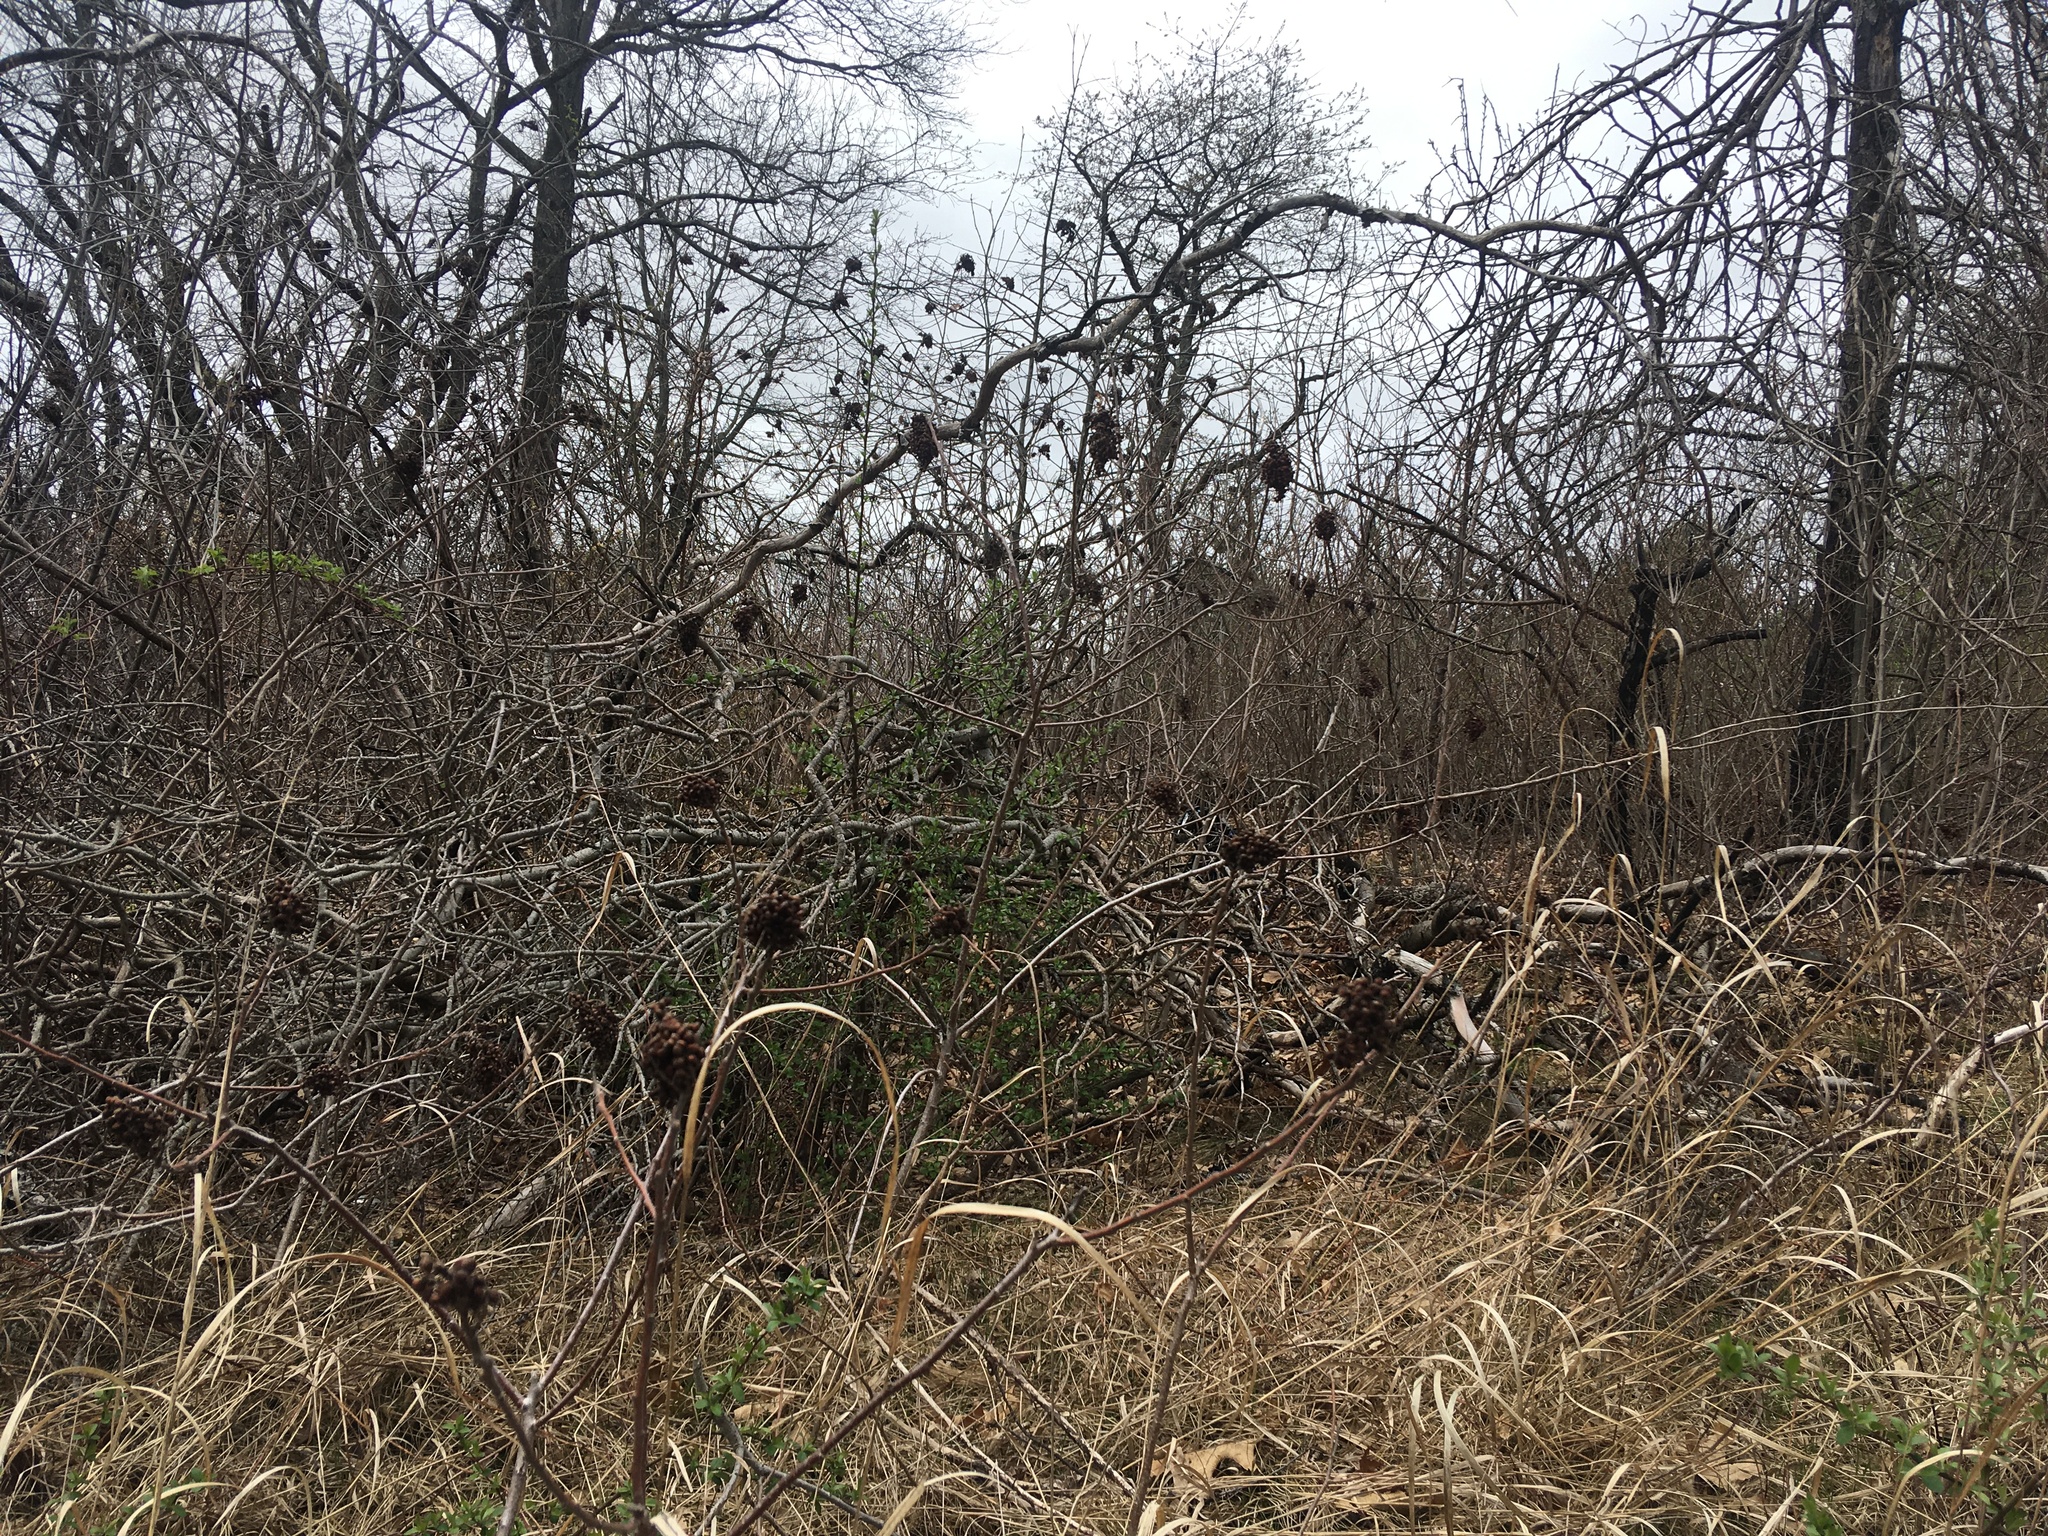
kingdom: Plantae
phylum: Tracheophyta
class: Magnoliopsida
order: Sapindales
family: Anacardiaceae
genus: Rhus
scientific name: Rhus copallina
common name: Shining sumac
